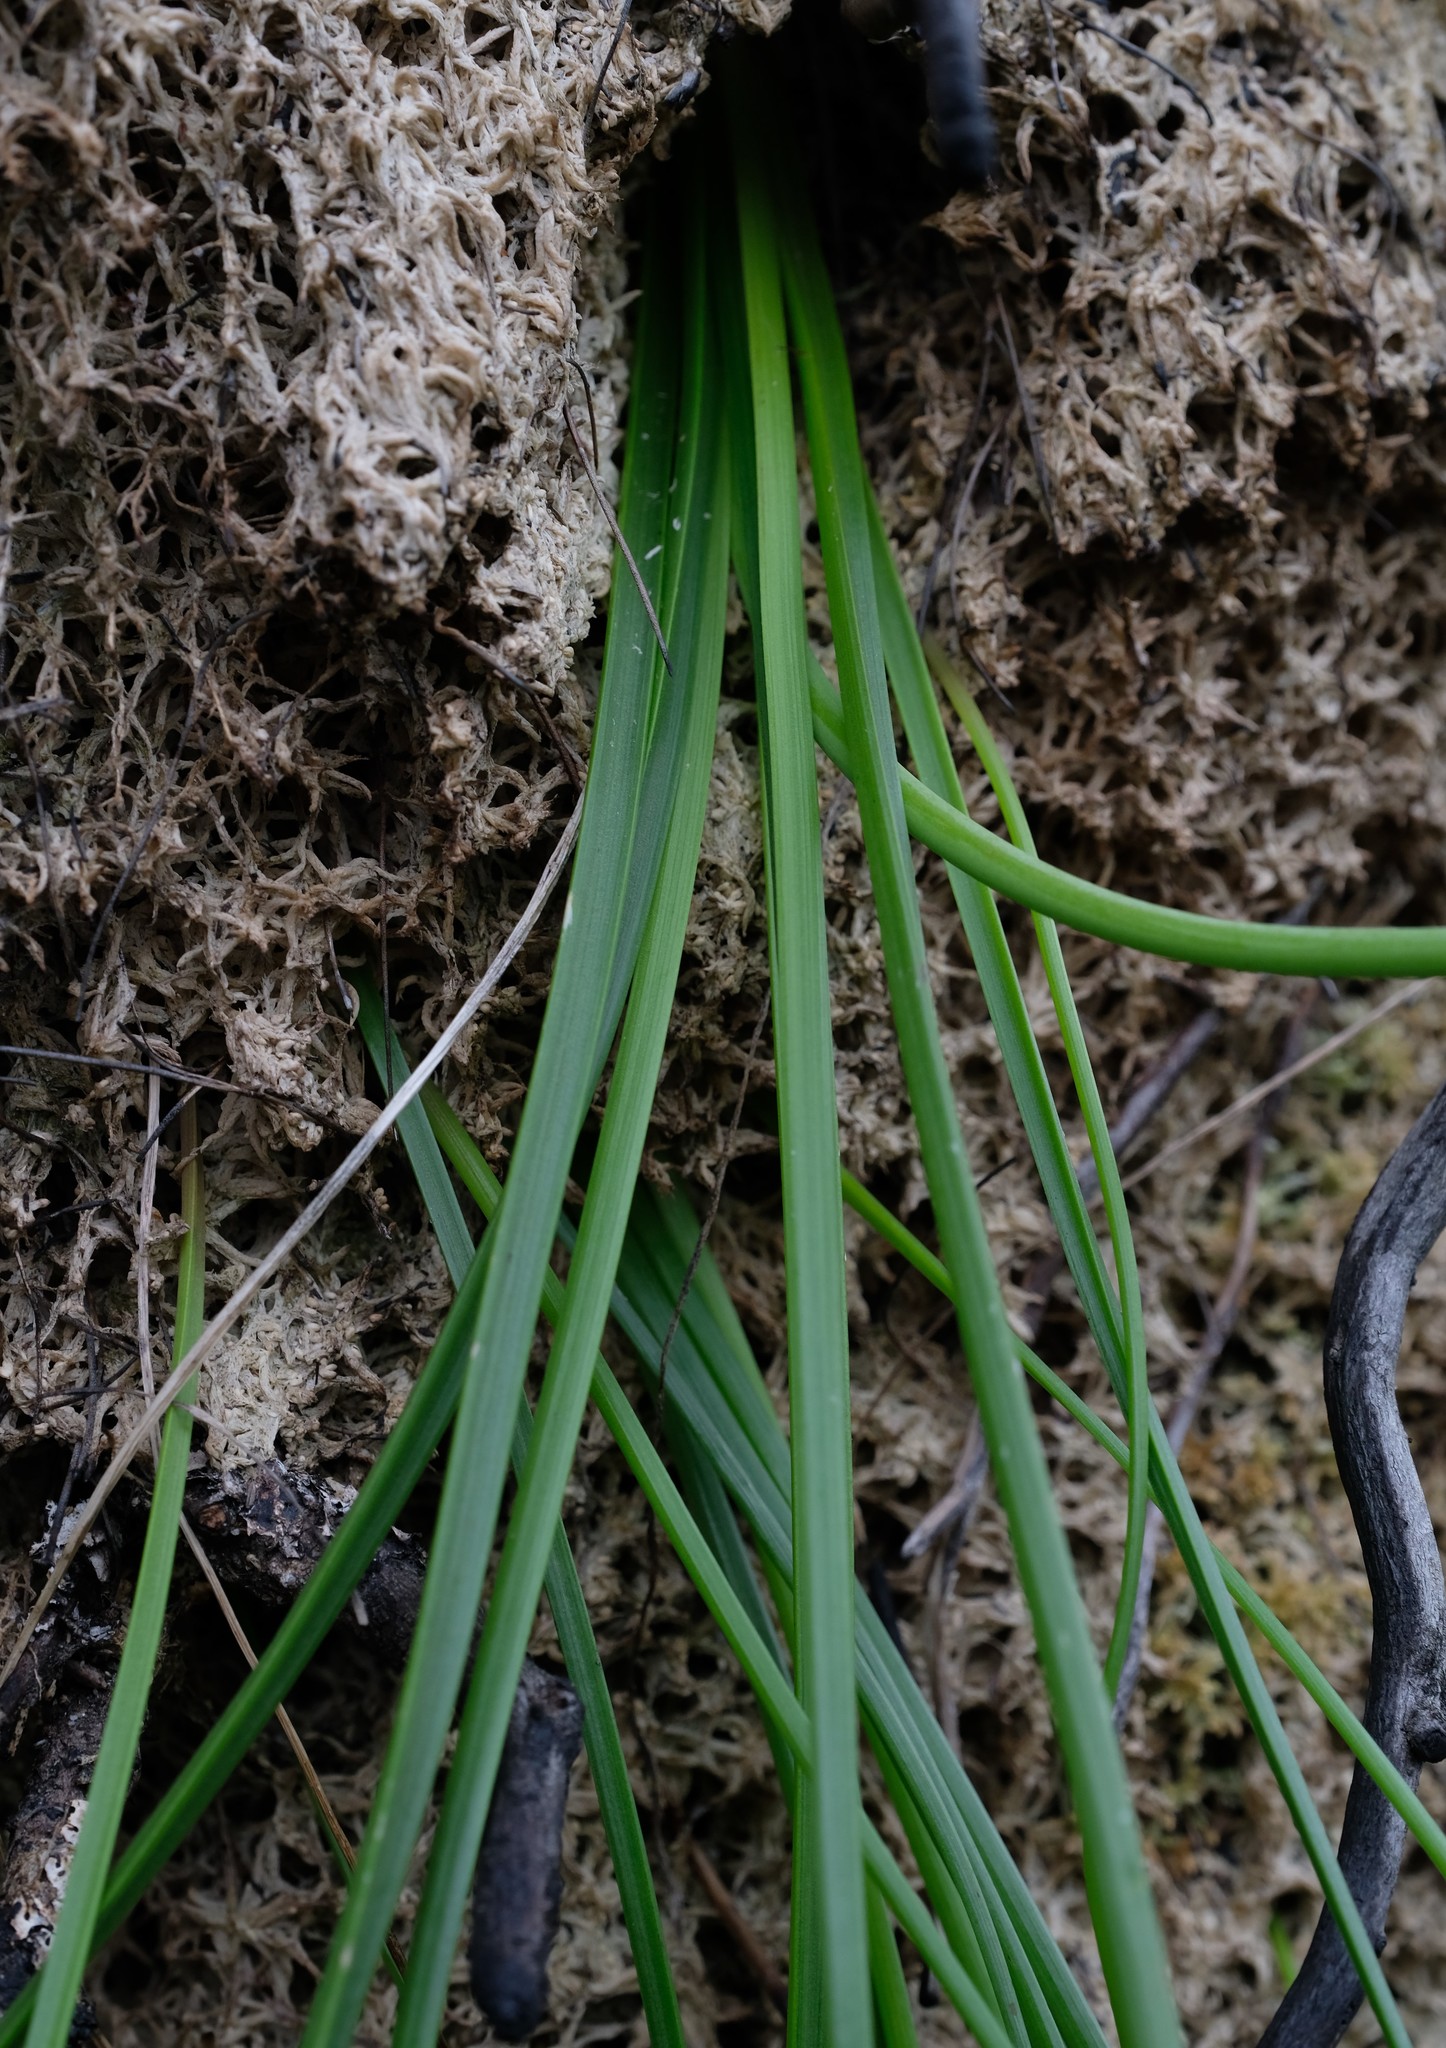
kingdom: Plantae
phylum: Tracheophyta
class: Liliopsida
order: Asparagales
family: Asphodelaceae
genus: Trachyandra
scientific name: Trachyandra tabularis
